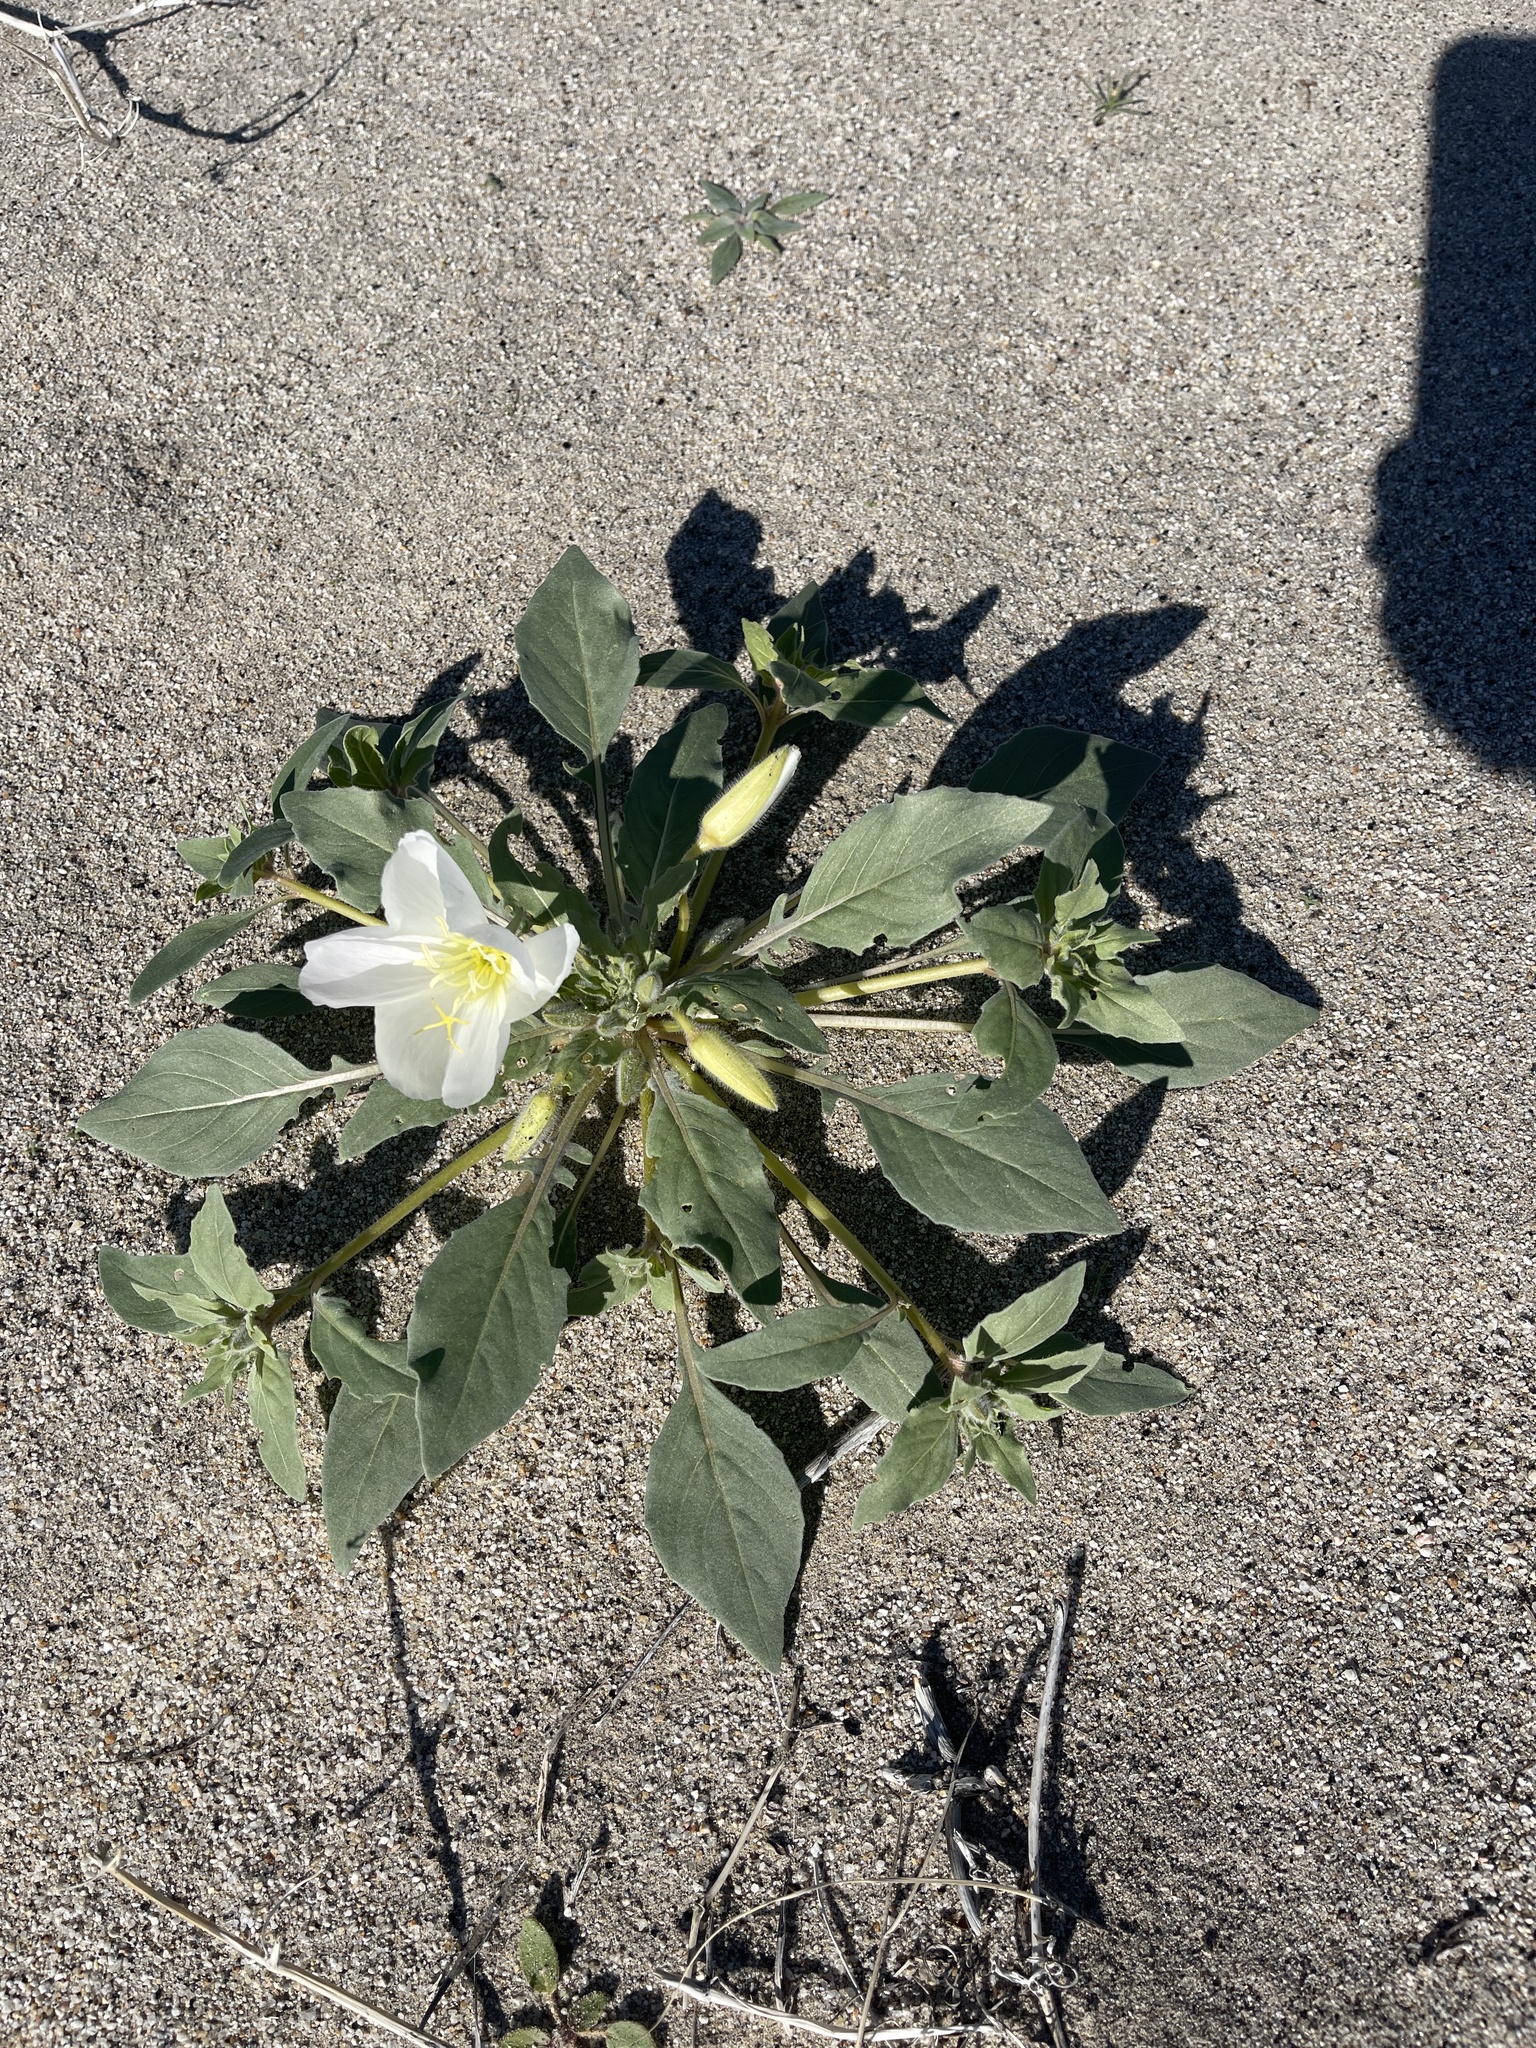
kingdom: Plantae
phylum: Tracheophyta
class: Magnoliopsida
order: Myrtales
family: Onagraceae
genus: Oenothera
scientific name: Oenothera deltoides
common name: Basket evening-primrose
